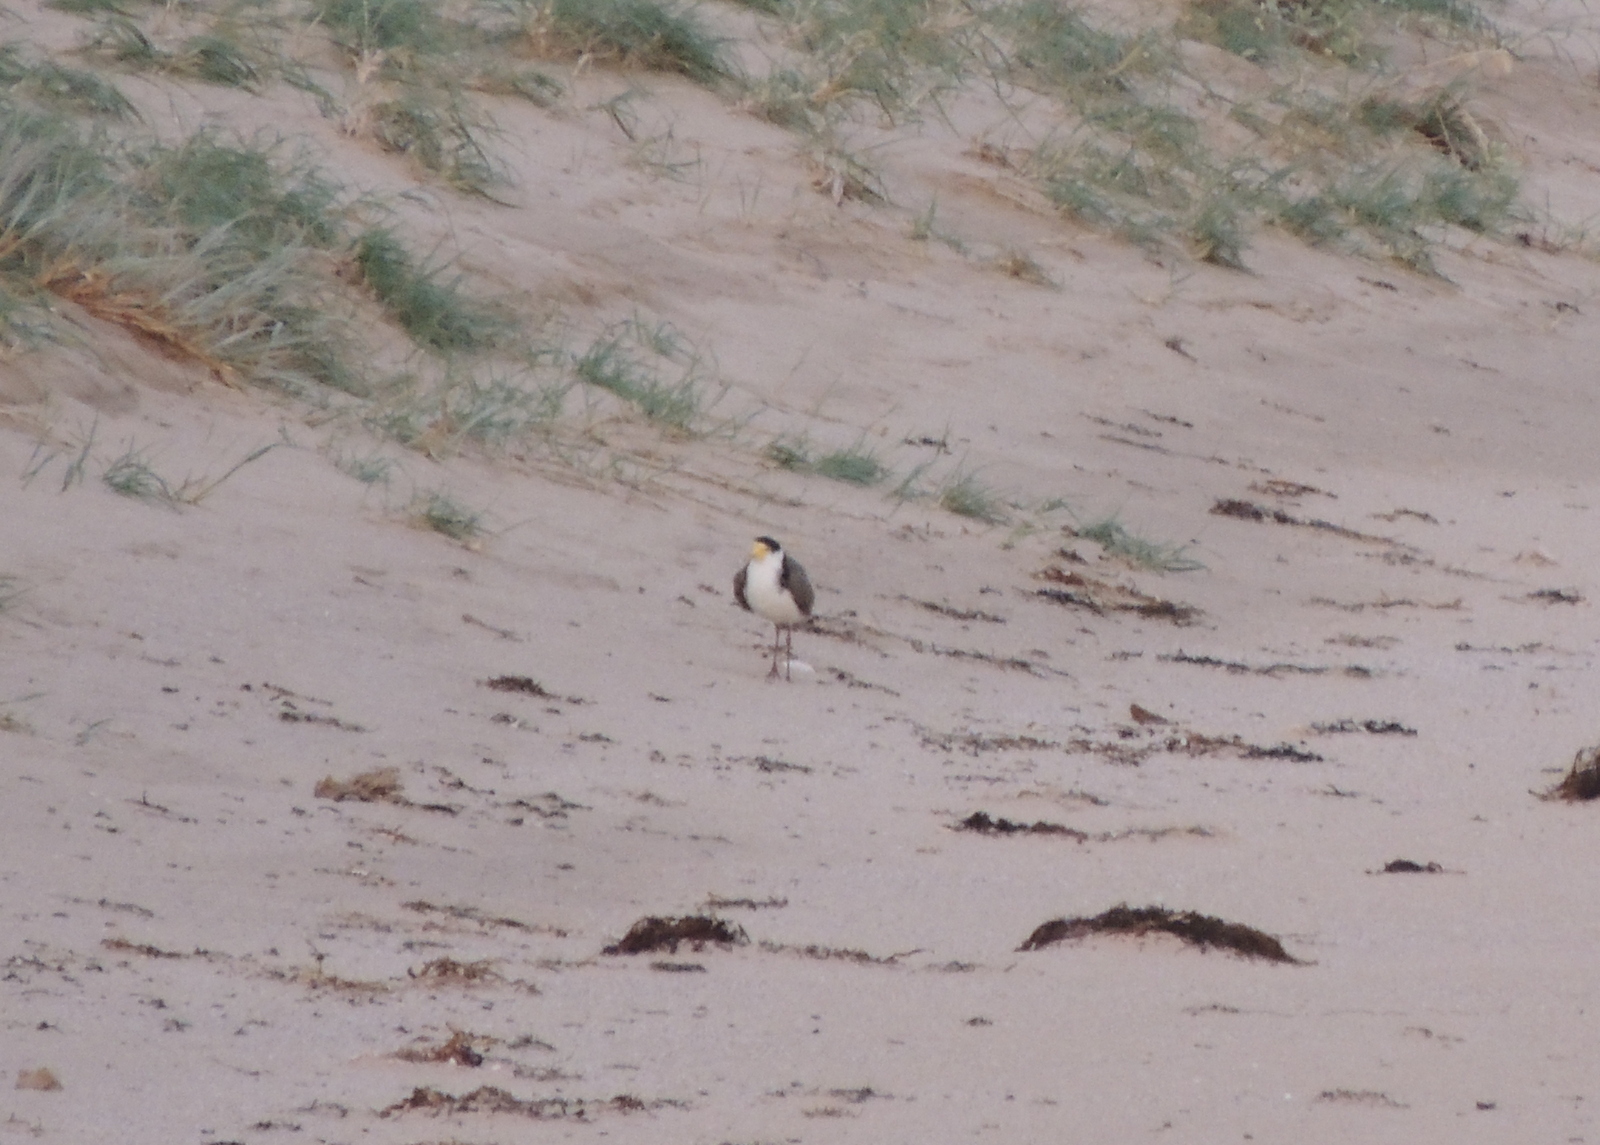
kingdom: Animalia
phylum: Chordata
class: Aves
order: Charadriiformes
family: Charadriidae
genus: Vanellus
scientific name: Vanellus miles
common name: Masked lapwing
